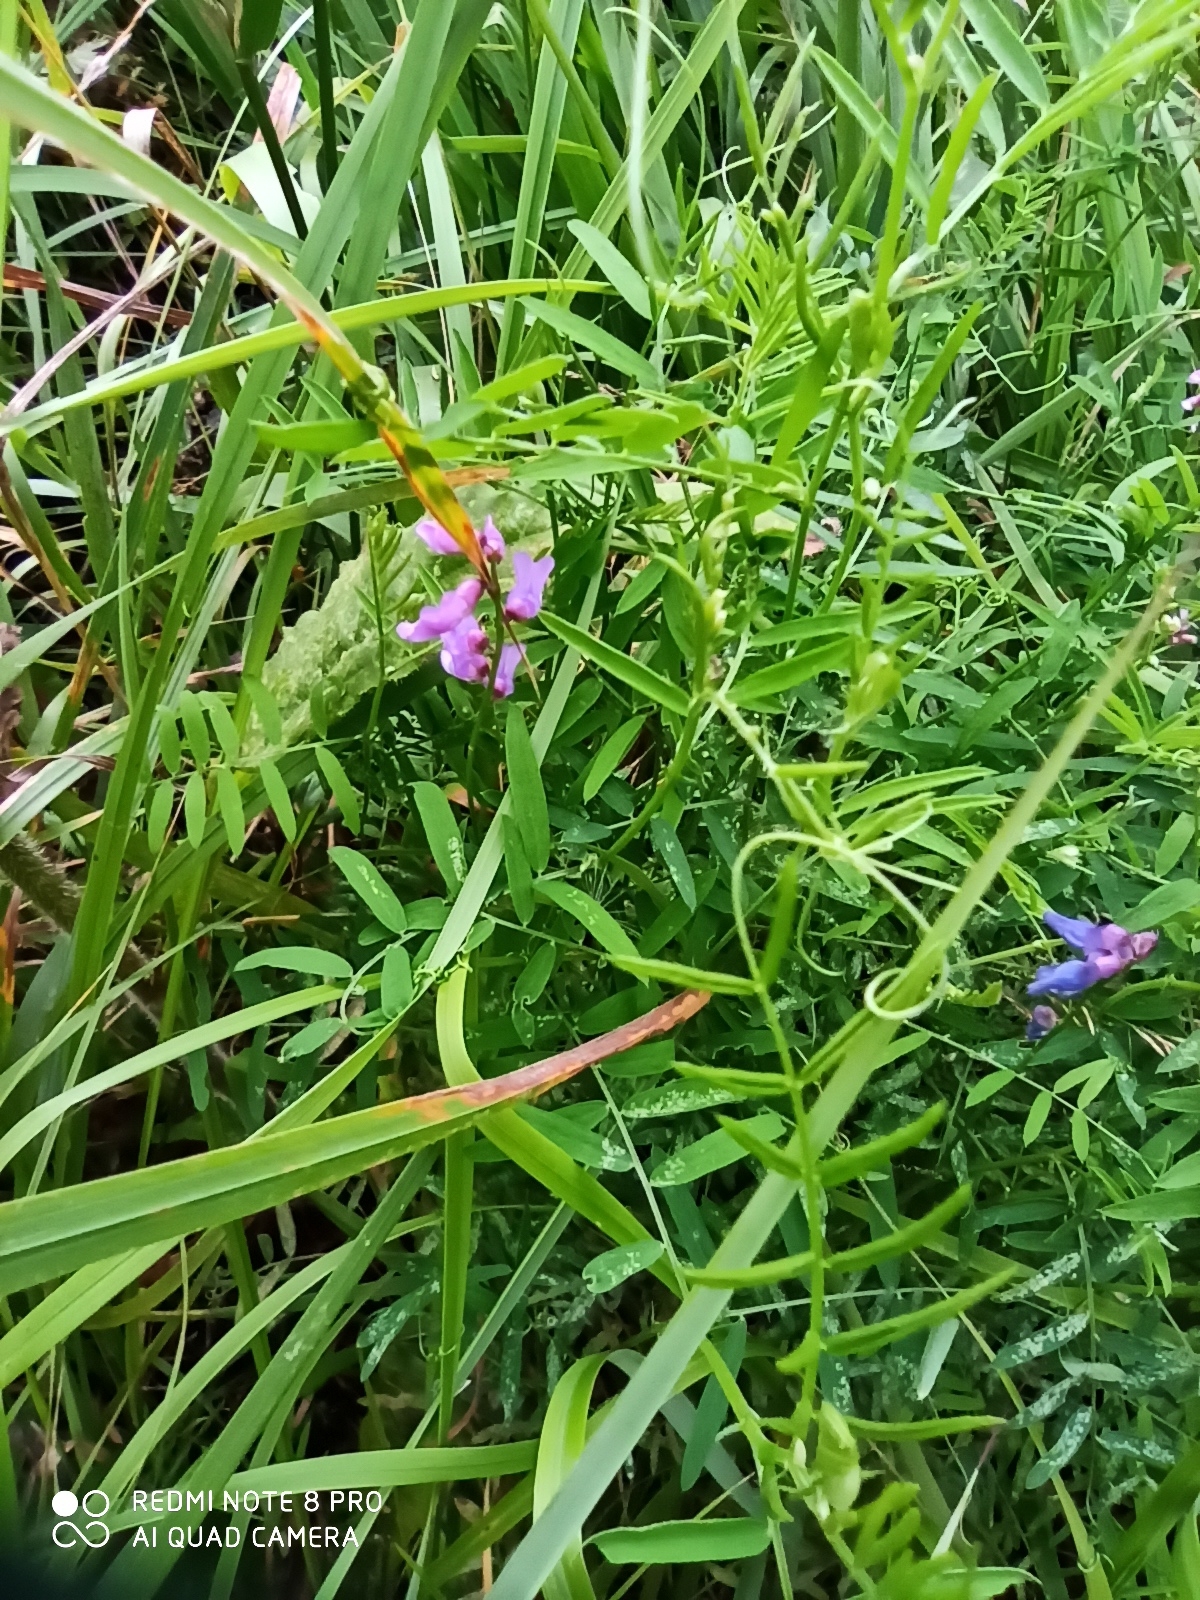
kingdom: Plantae
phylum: Tracheophyta
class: Magnoliopsida
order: Fabales
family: Fabaceae
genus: Vicia
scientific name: Vicia cracca
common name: Bird vetch
